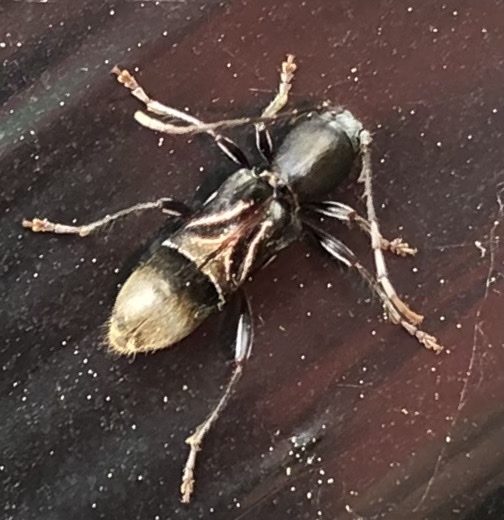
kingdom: Animalia
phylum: Arthropoda
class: Insecta
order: Coleoptera
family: Cerambycidae
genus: Cyrtophorus
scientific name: Cyrtophorus verrucosus
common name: Ant-like longhorn beetle
